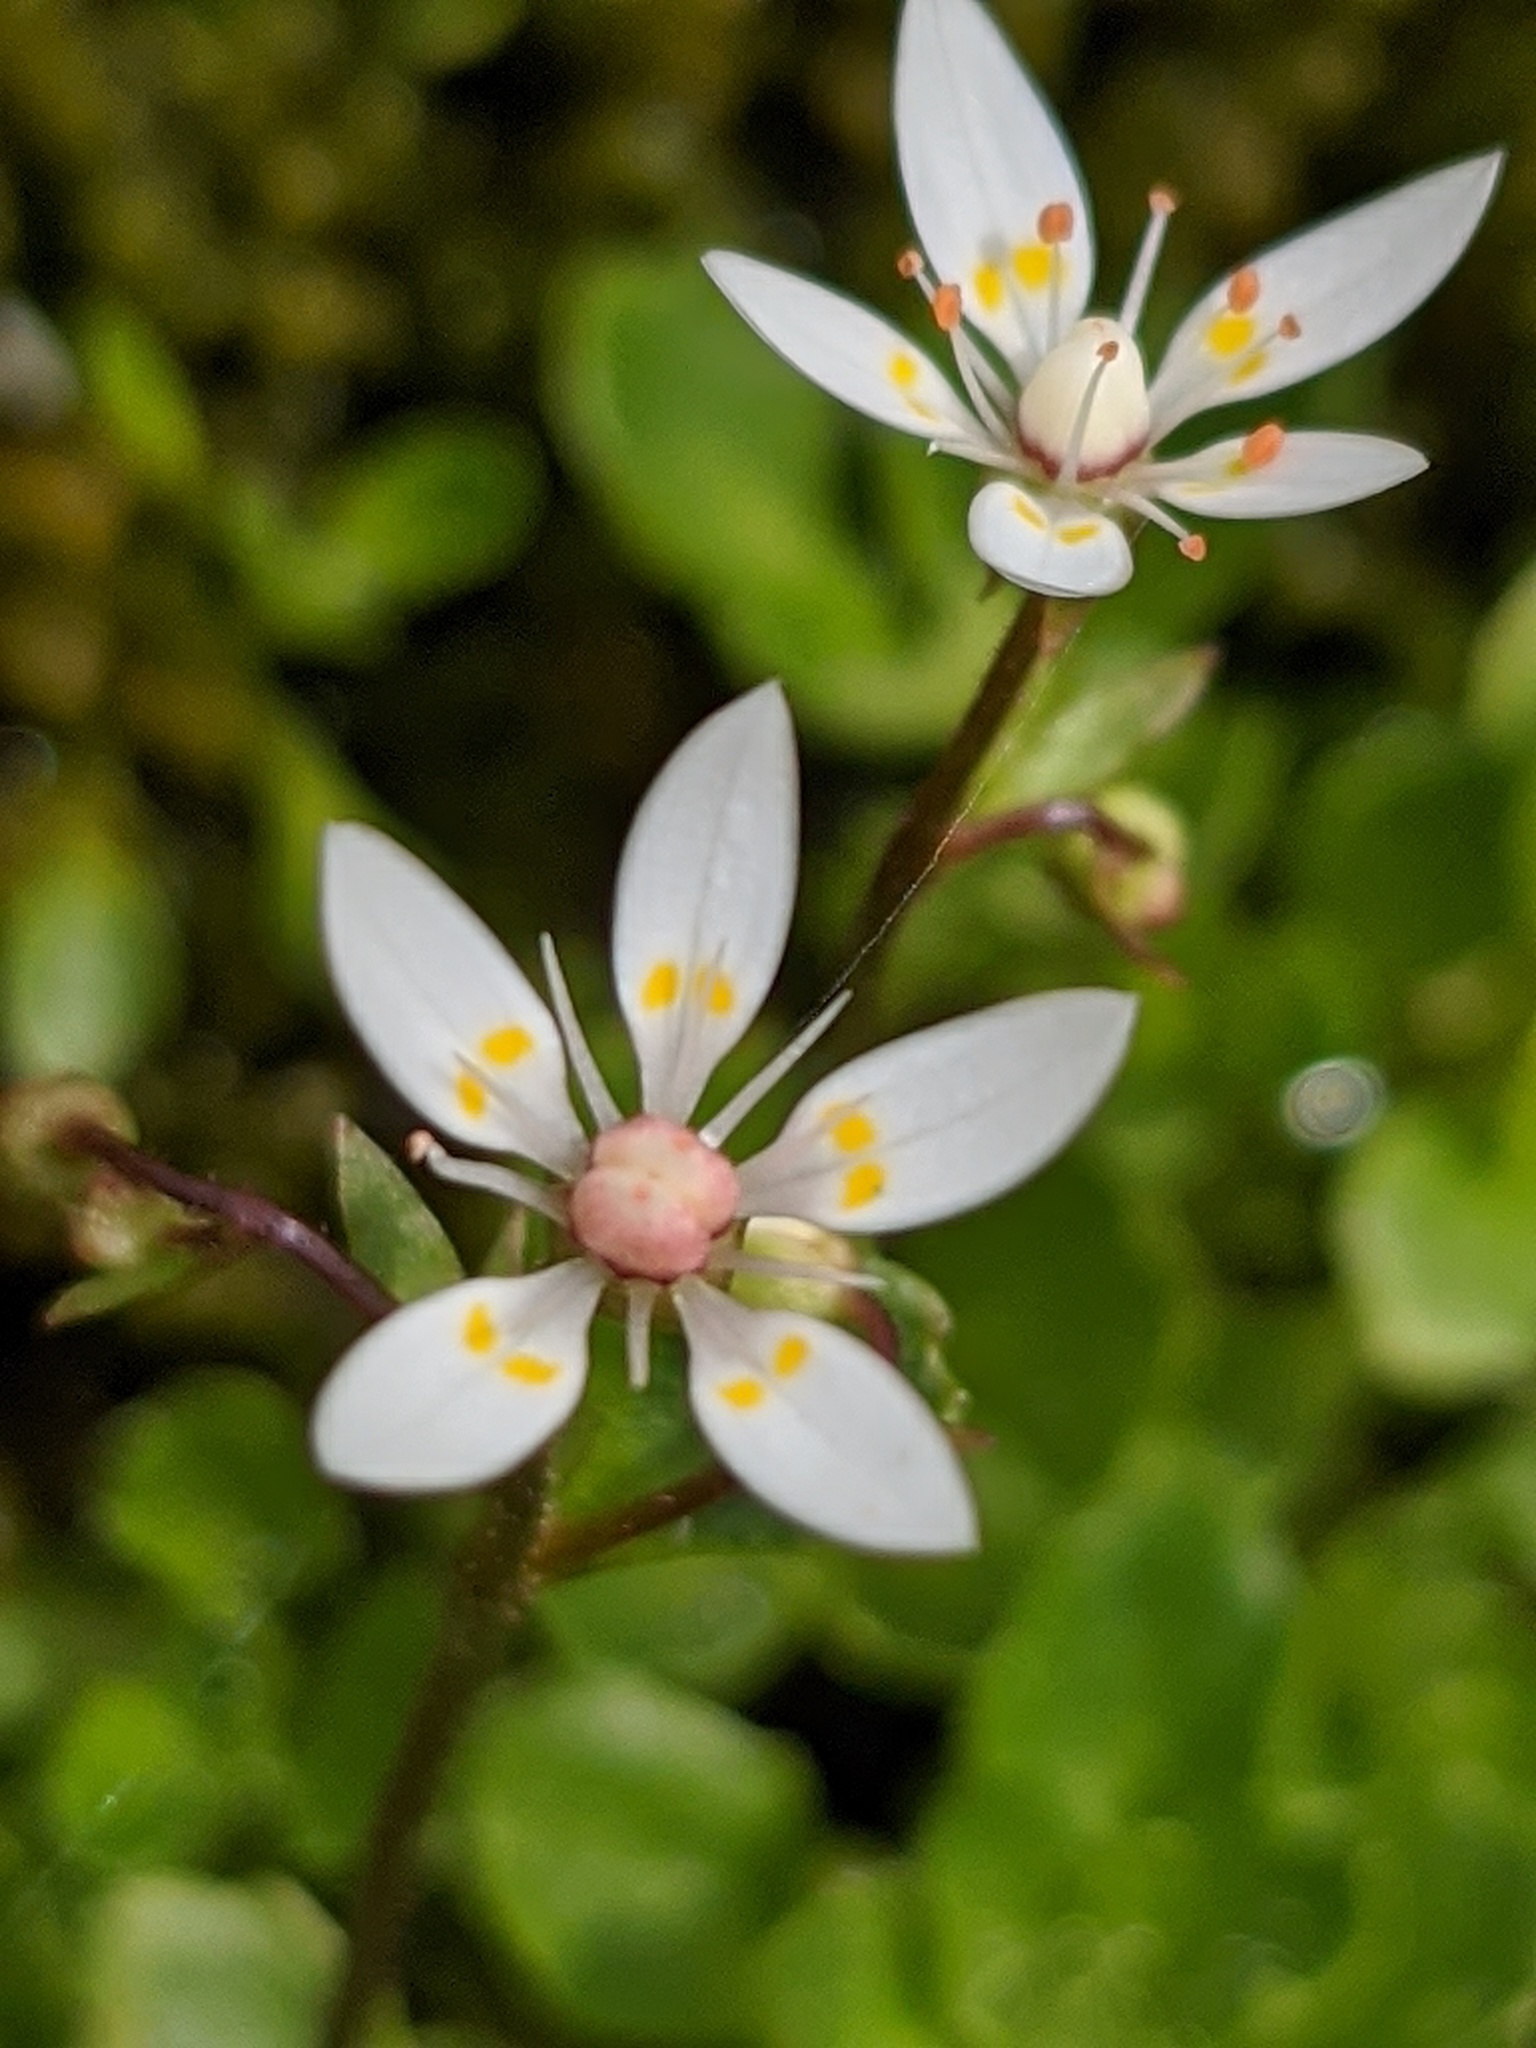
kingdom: Plantae
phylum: Tracheophyta
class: Magnoliopsida
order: Saxifragales
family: Saxifragaceae
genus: Micranthes
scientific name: Micranthes stellaris
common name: Starry saxifrage
